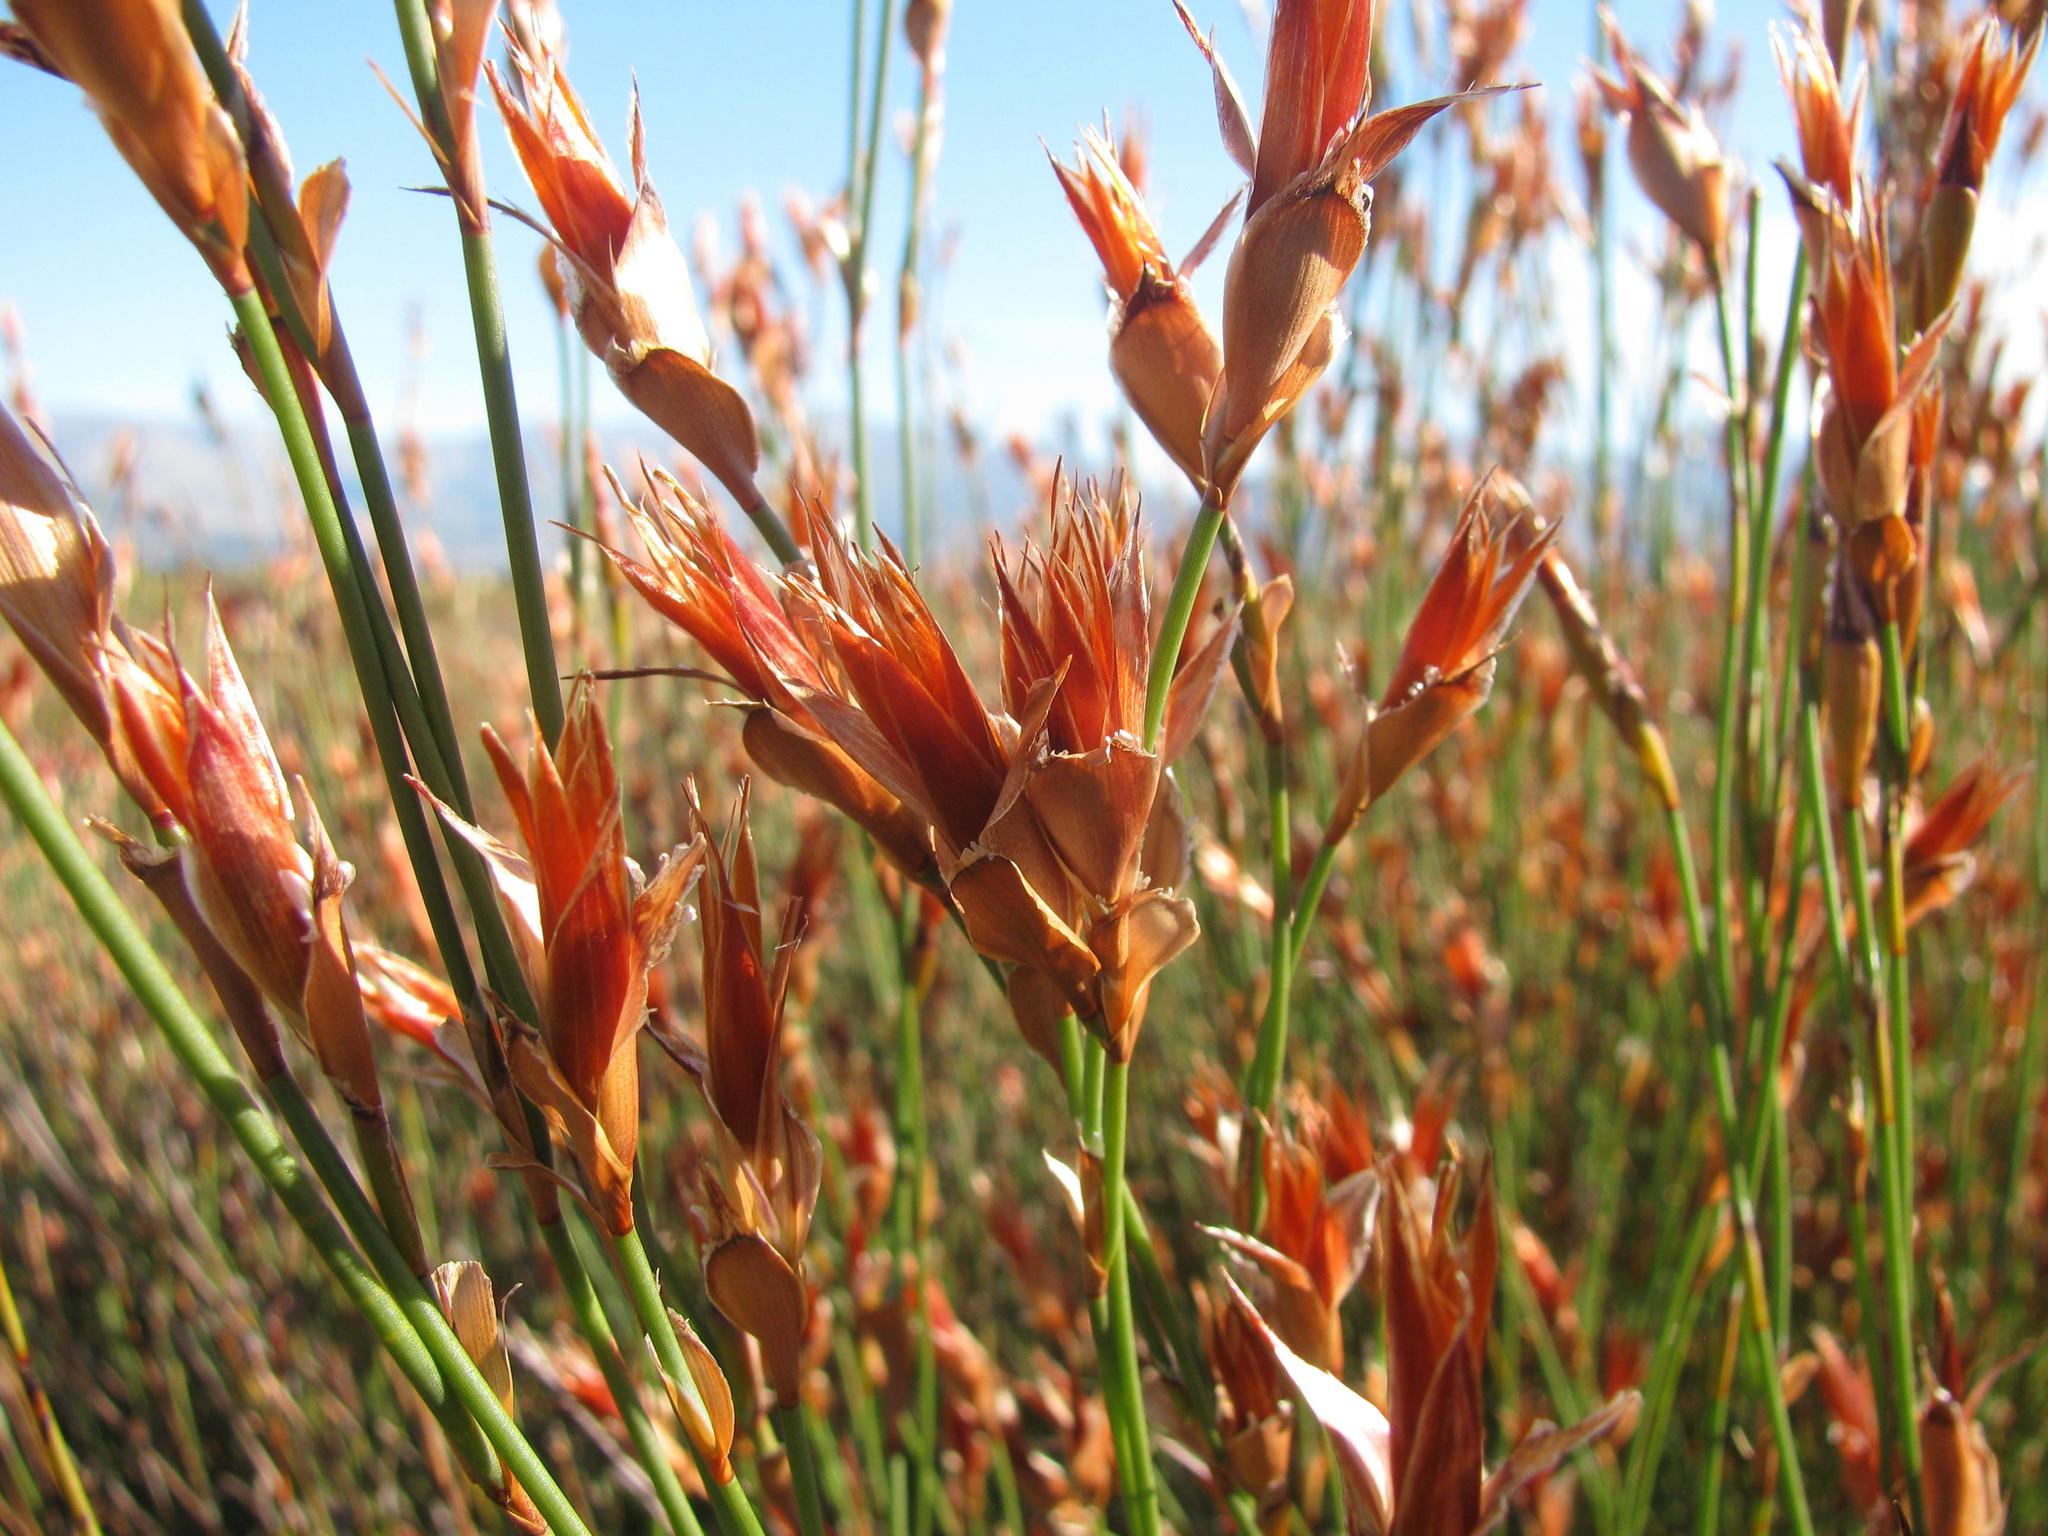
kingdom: Plantae
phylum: Tracheophyta
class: Liliopsida
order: Poales
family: Restionaceae
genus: Willdenowia
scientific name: Willdenowia incurvata
